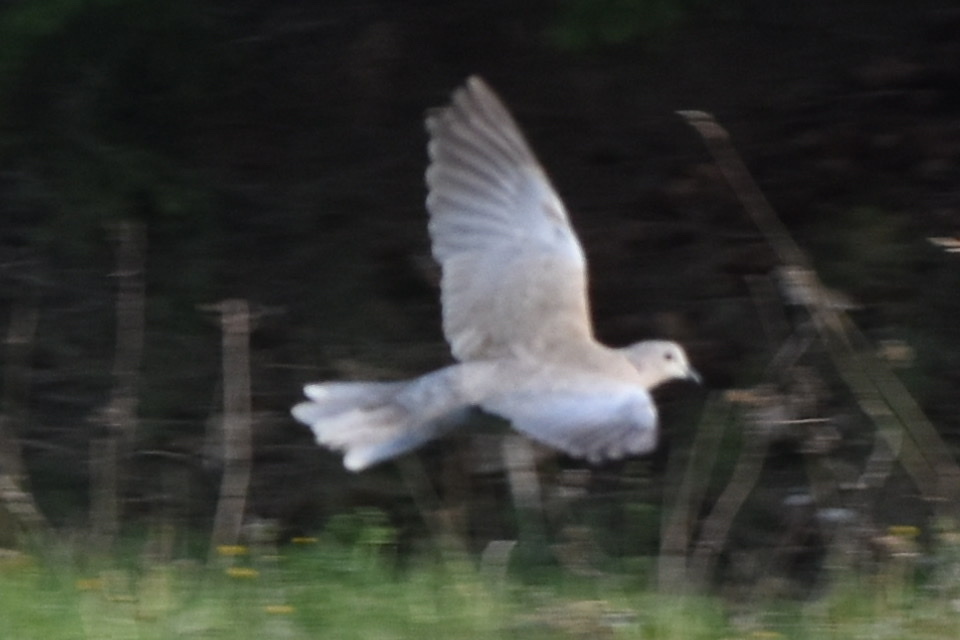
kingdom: Animalia
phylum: Chordata
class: Aves
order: Columbiformes
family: Columbidae
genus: Streptopelia
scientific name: Streptopelia decaocto
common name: Eurasian collared dove
